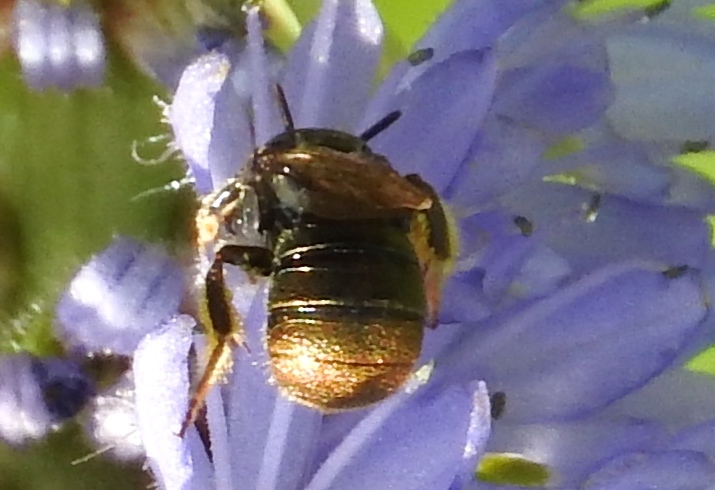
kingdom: Animalia
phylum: Arthropoda
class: Insecta
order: Hymenoptera
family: Apidae
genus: Ceratina
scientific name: Ceratina
